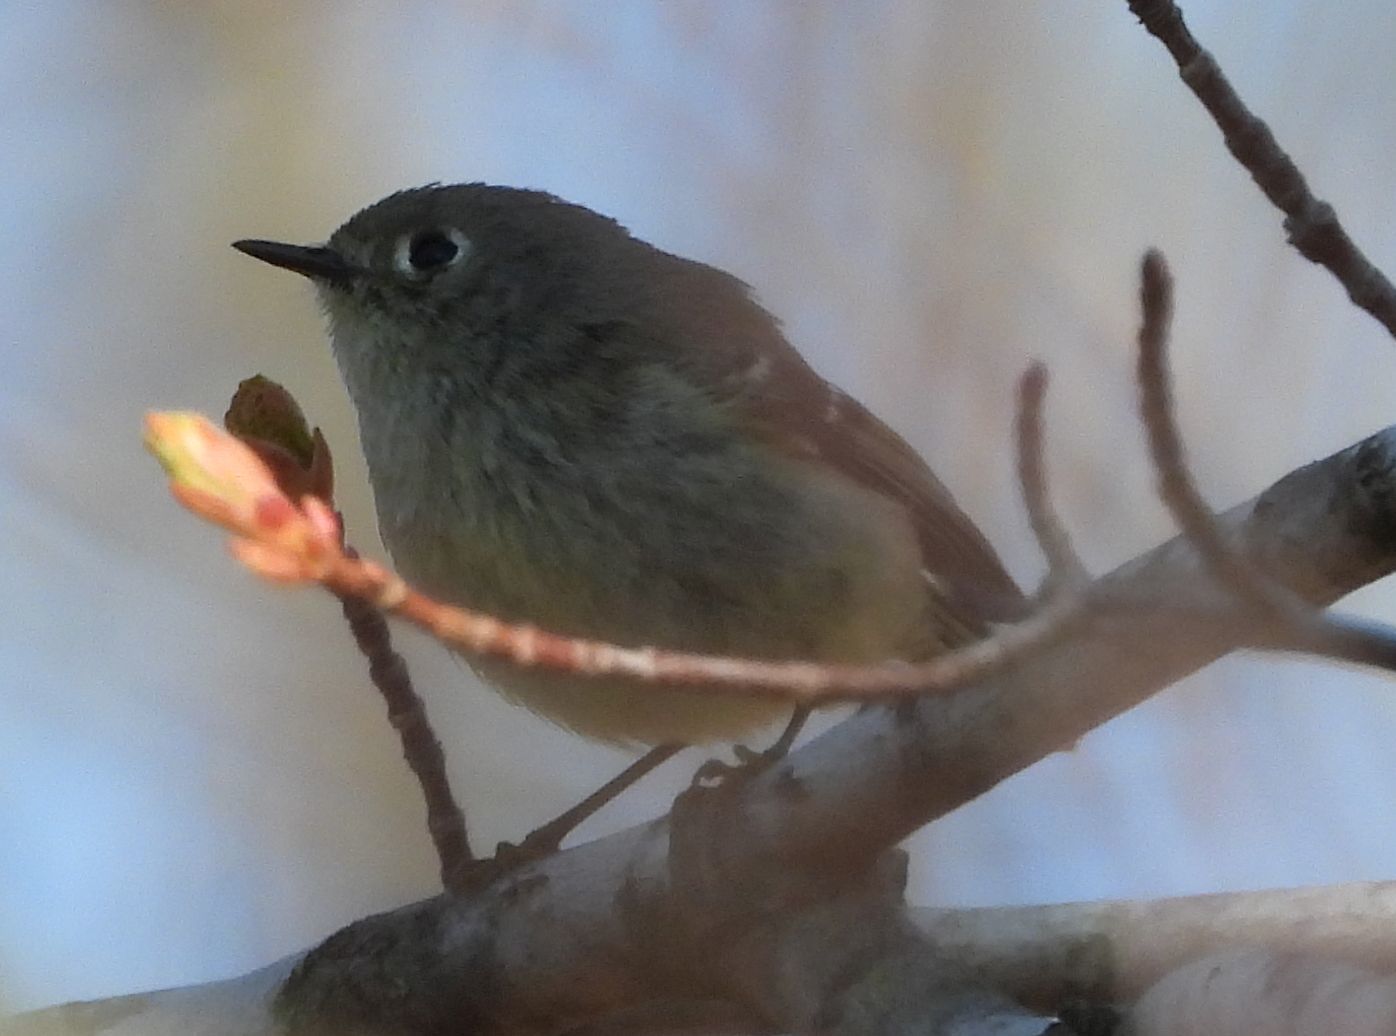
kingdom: Animalia
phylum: Chordata
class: Aves
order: Passeriformes
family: Regulidae
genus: Regulus
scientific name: Regulus calendula
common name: Ruby-crowned kinglet
